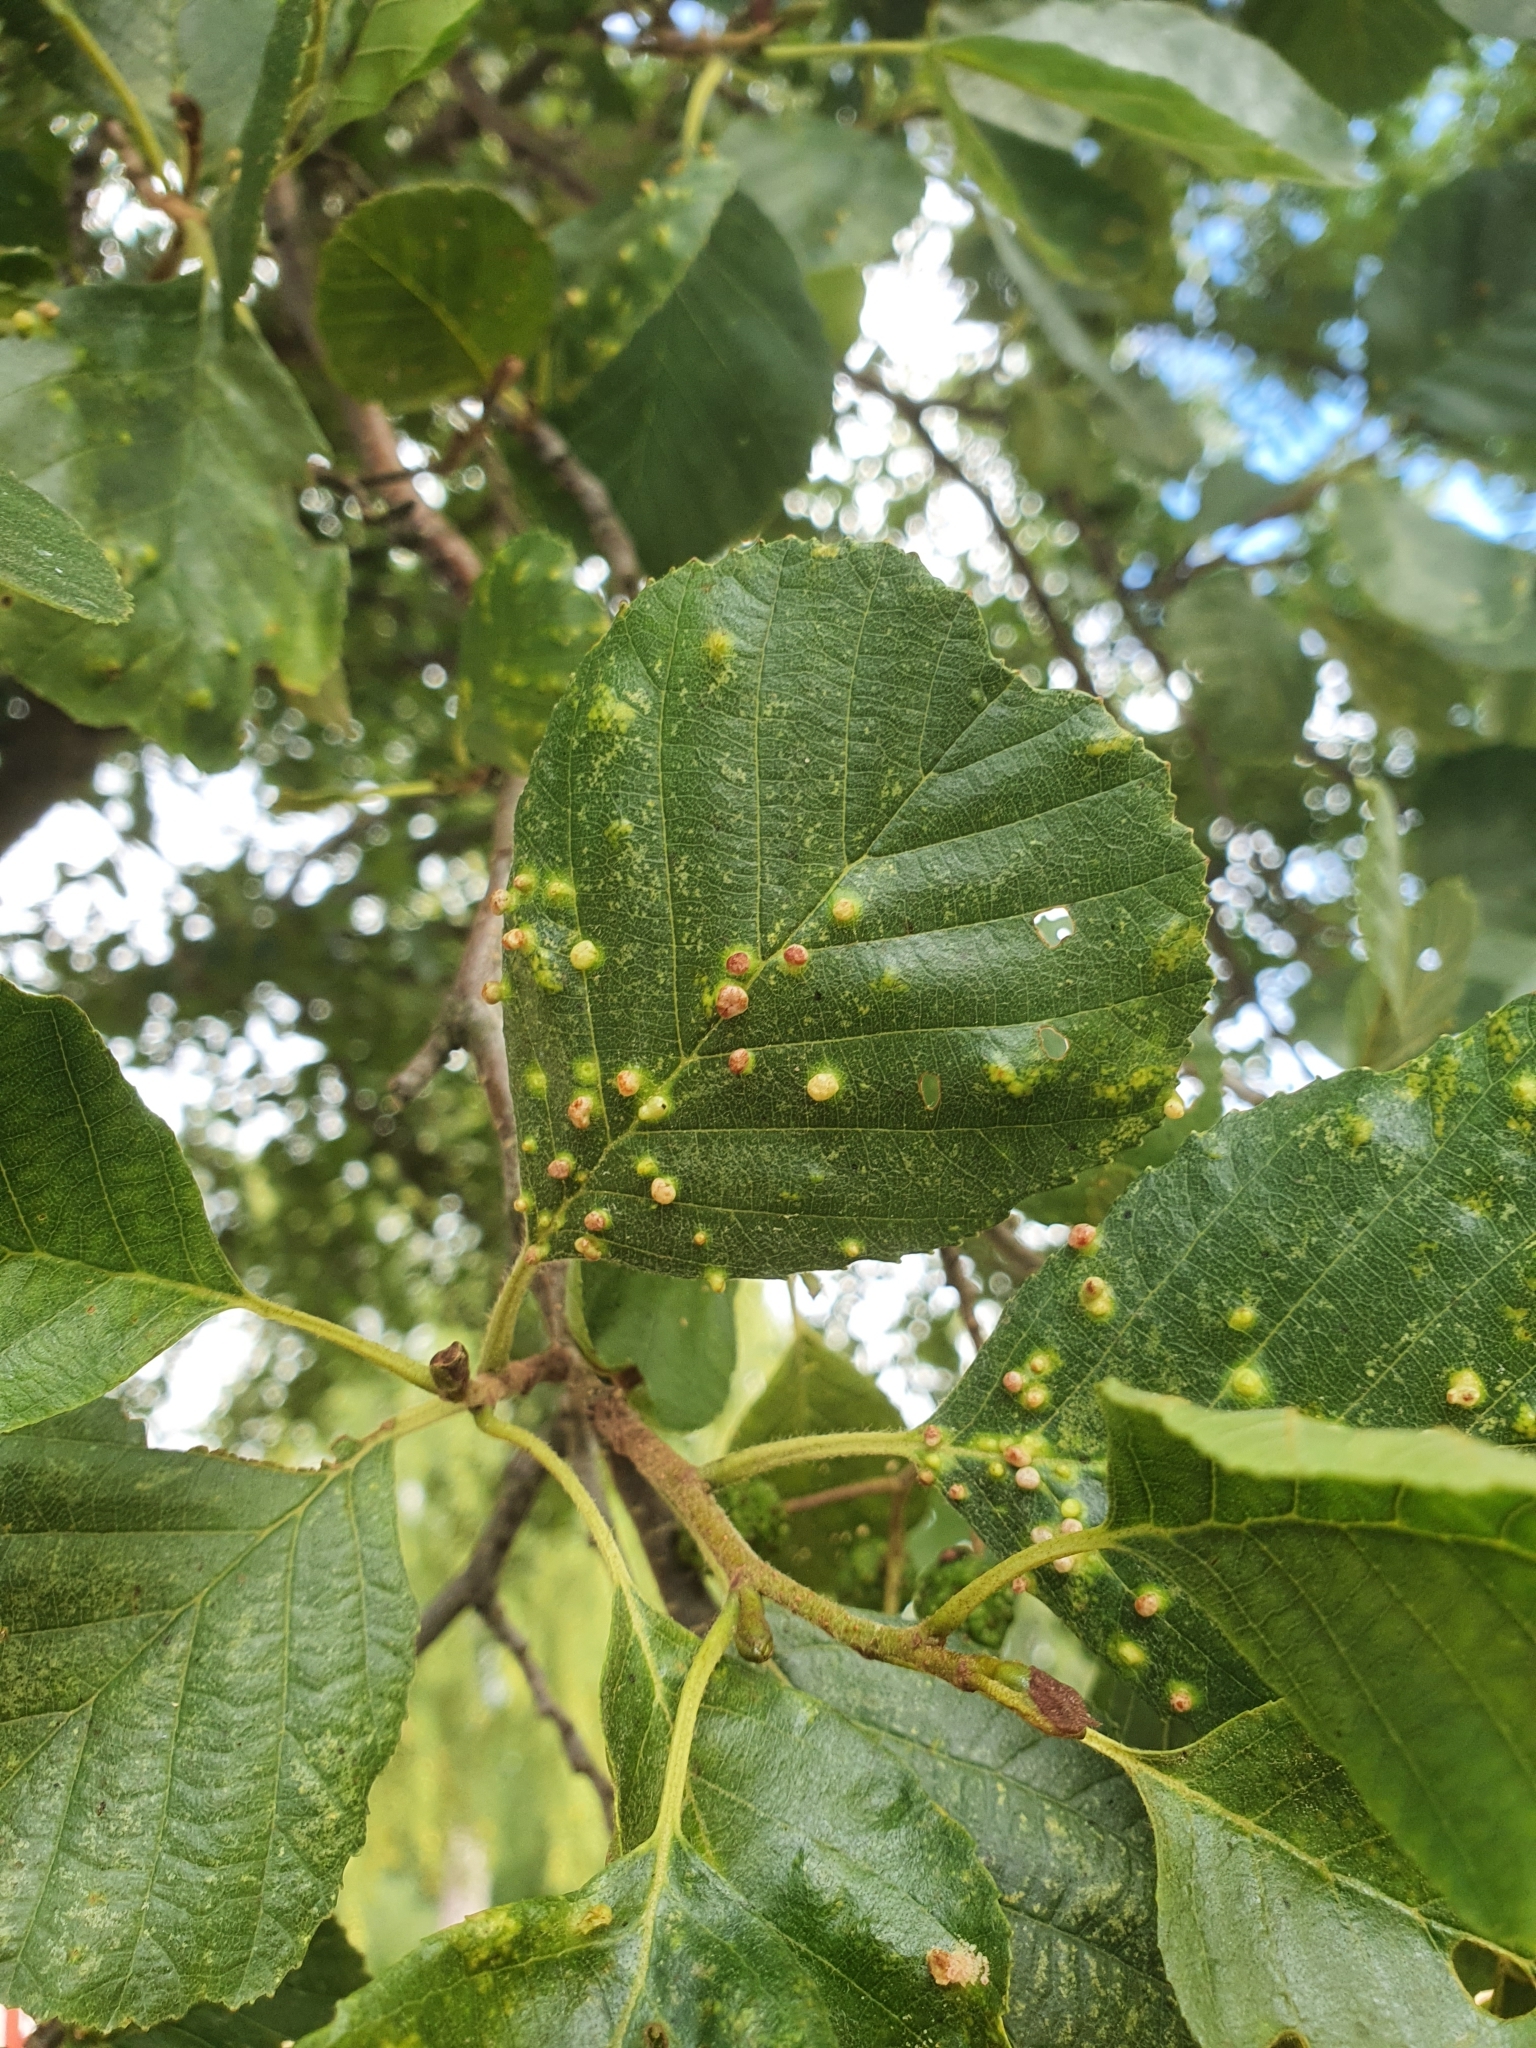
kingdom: Animalia
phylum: Arthropoda
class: Arachnida
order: Trombidiformes
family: Eriophyidae
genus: Eriophyes
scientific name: Eriophyes laevis
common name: Alder leaf gall mite
